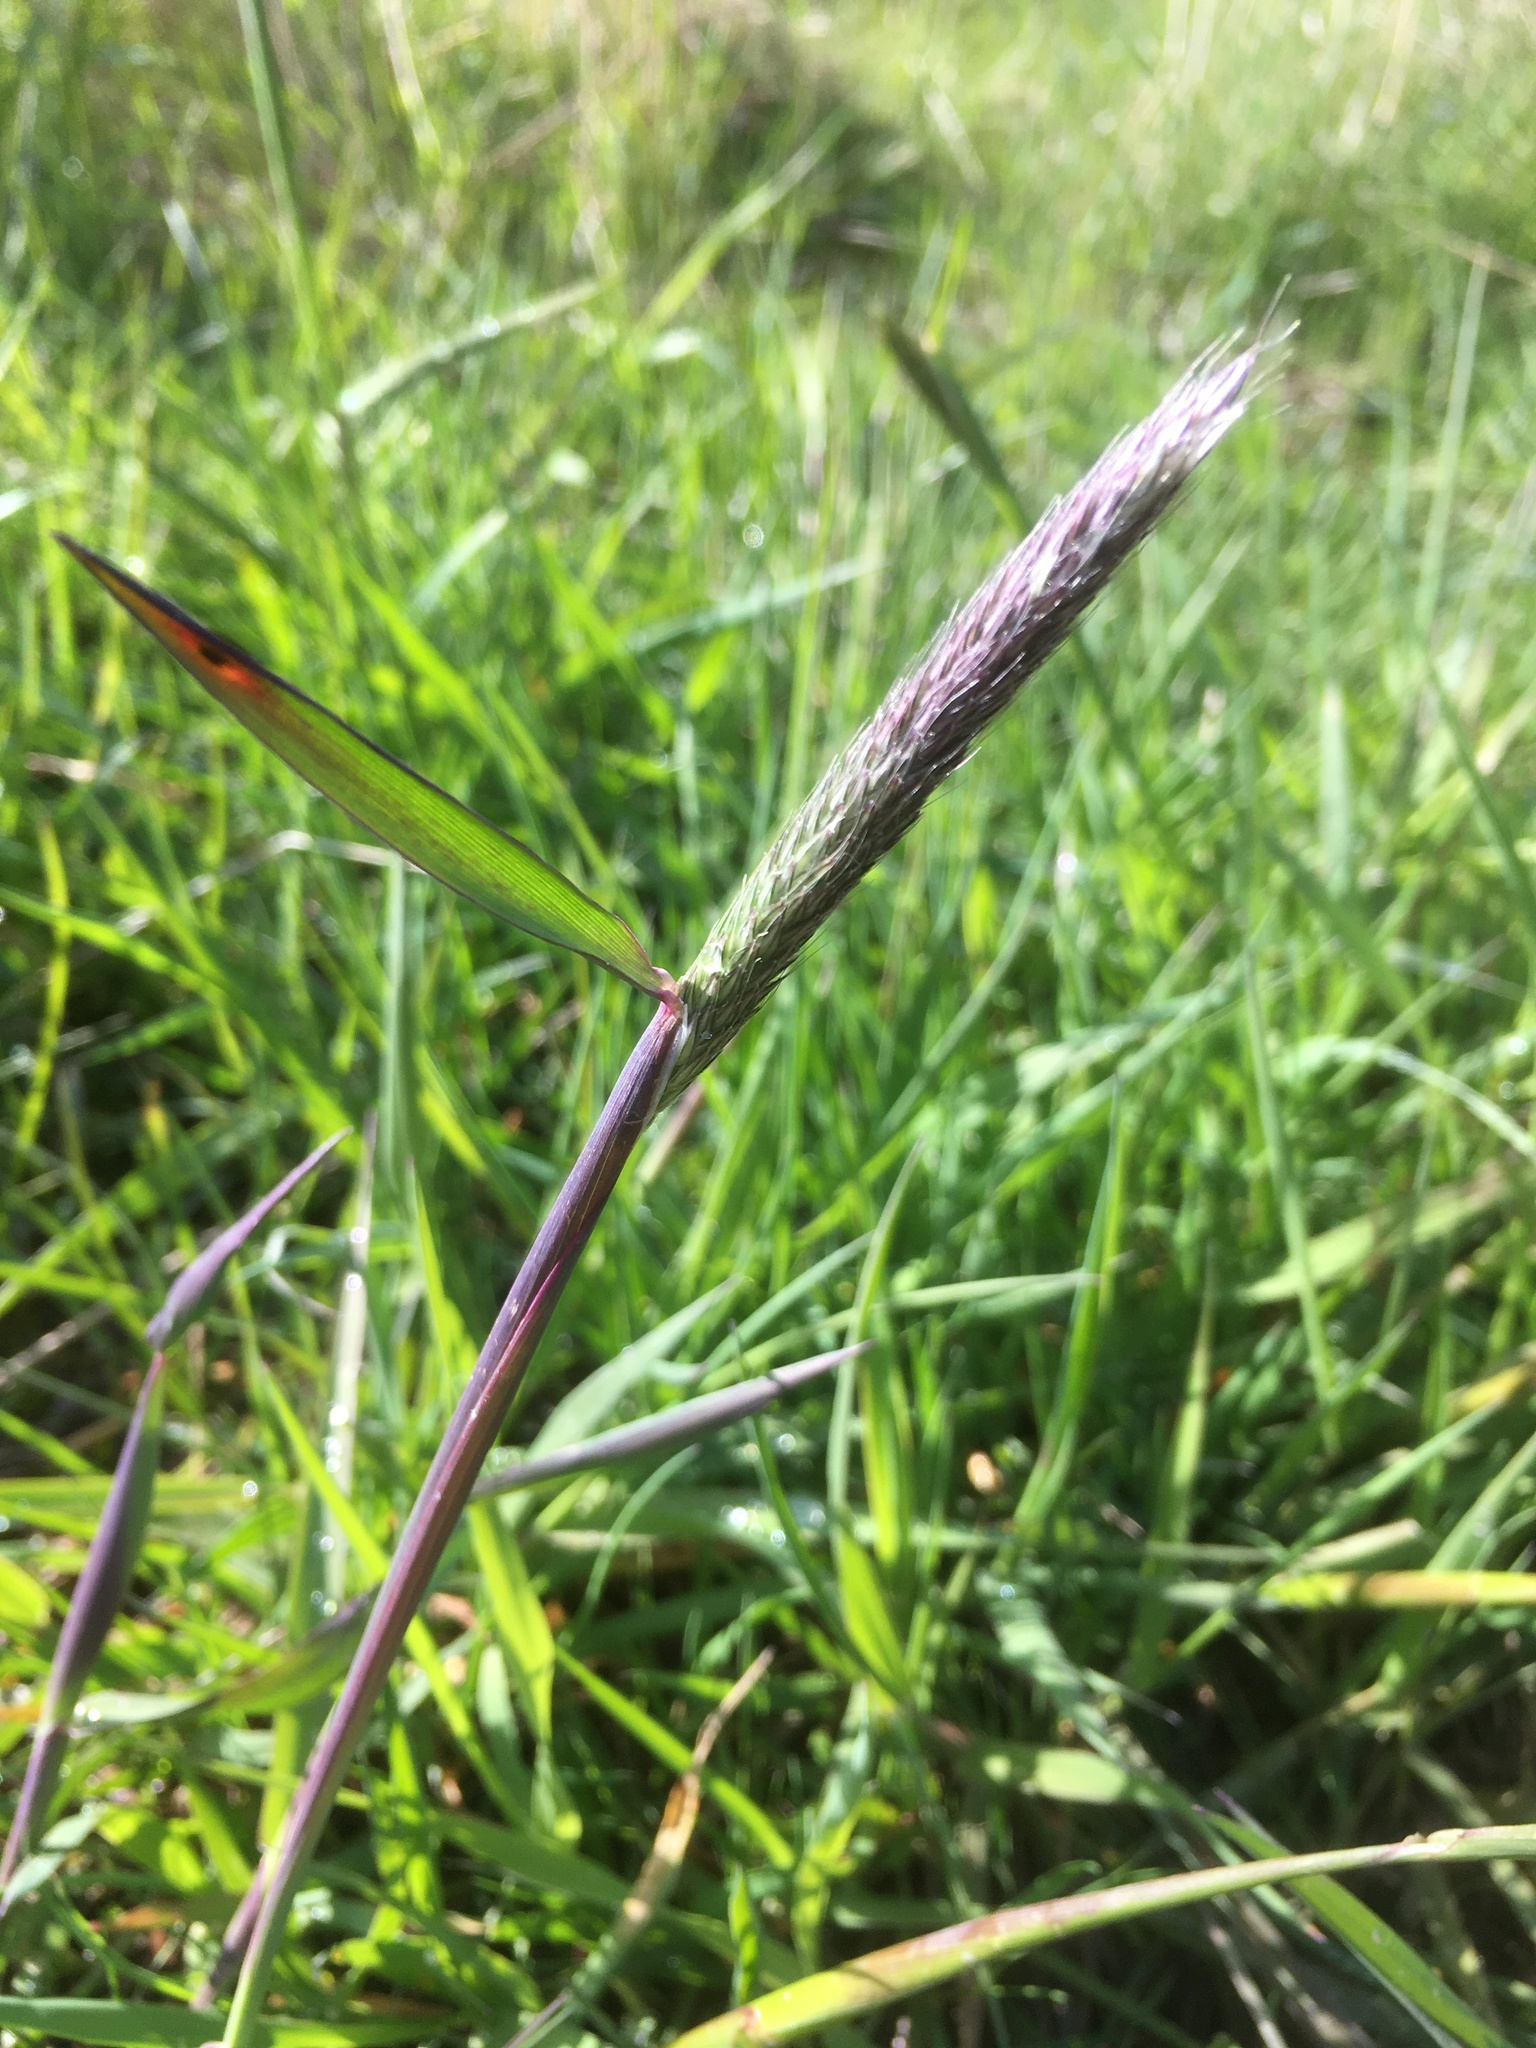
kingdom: Plantae
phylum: Tracheophyta
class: Liliopsida
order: Poales
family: Poaceae
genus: Alopecurus
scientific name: Alopecurus pratensis
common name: Meadow foxtail
